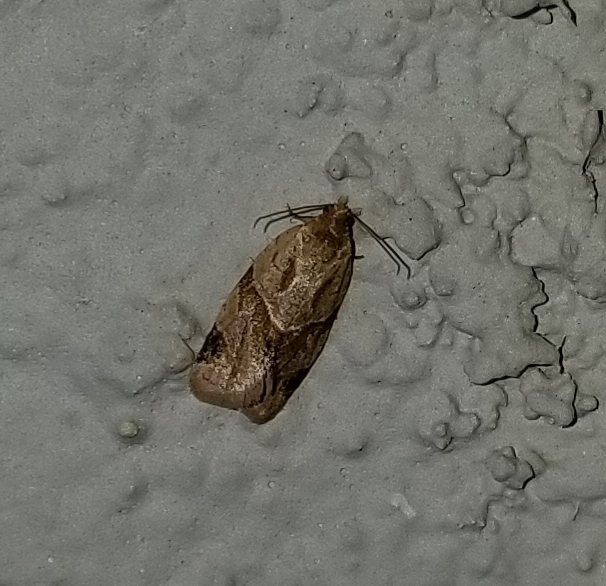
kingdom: Animalia
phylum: Arthropoda
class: Insecta
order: Lepidoptera
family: Tortricidae
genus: Clepsis
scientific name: Clepsis peritana
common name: Garden tortrix
